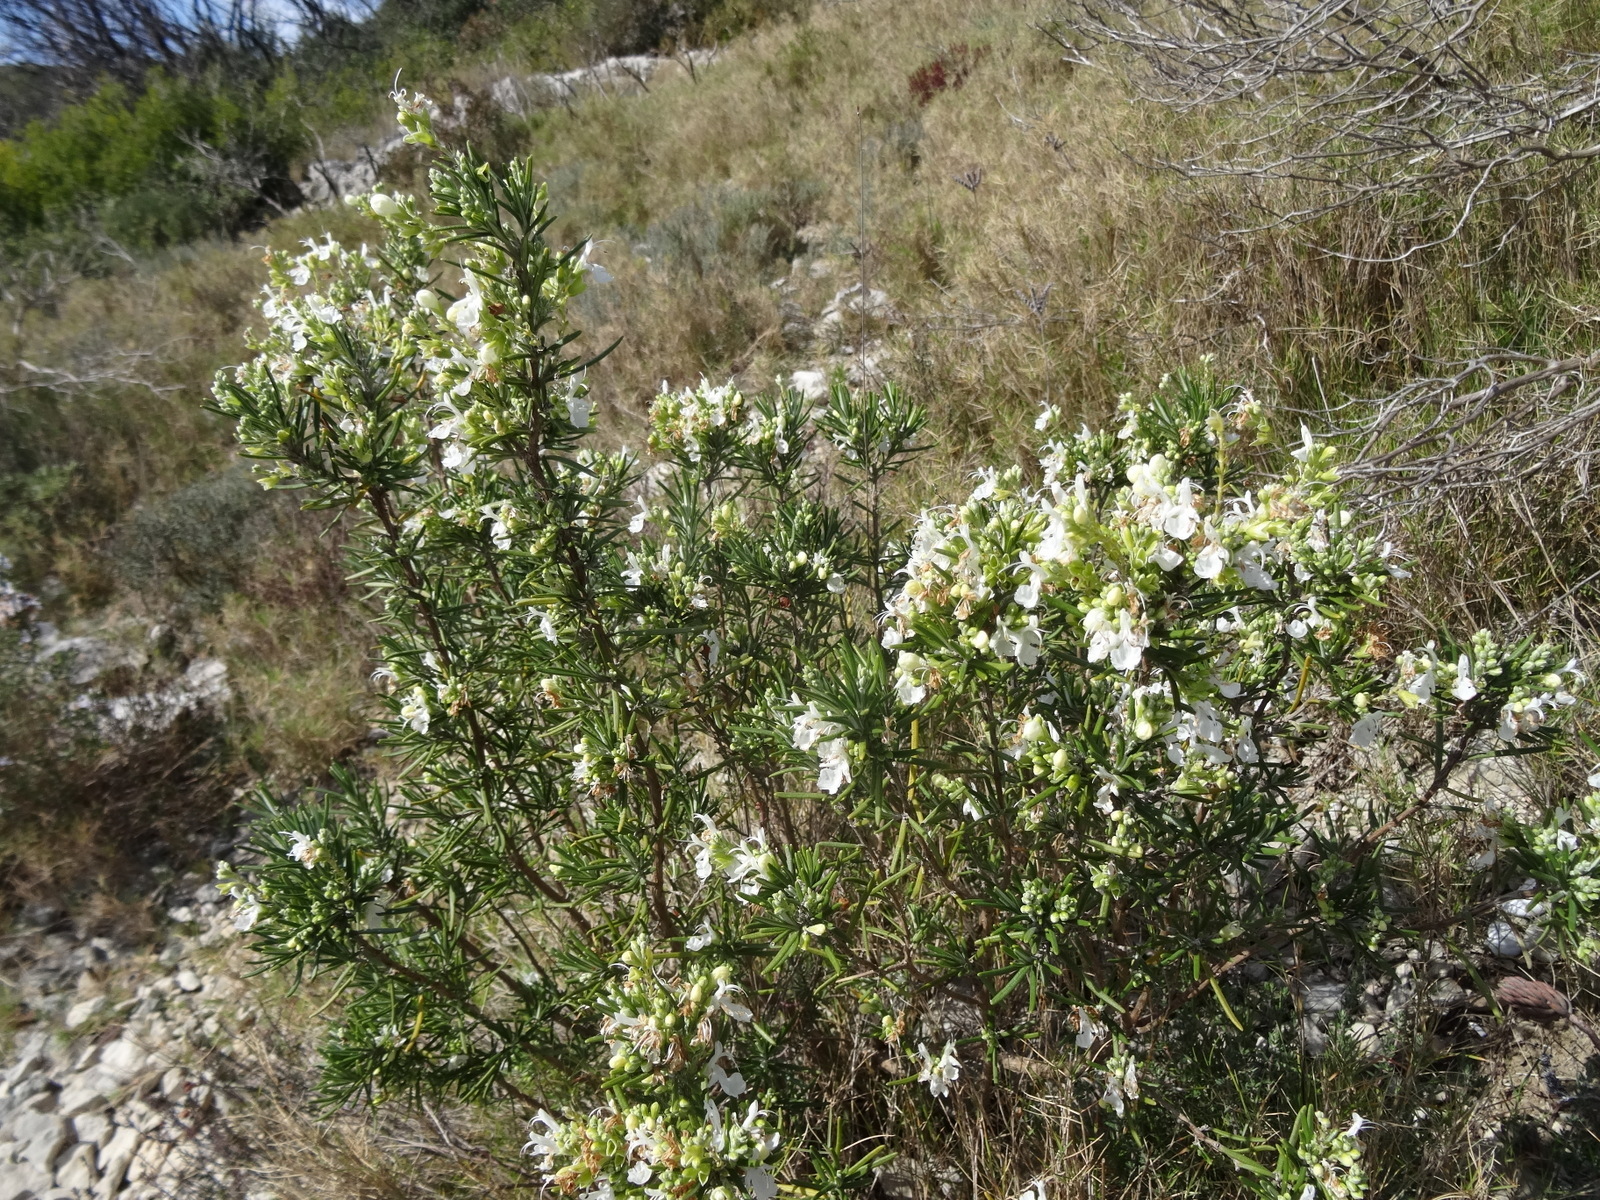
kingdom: Plantae
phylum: Tracheophyta
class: Magnoliopsida
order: Lamiales
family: Lamiaceae
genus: Salvia
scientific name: Salvia rosmarinus
